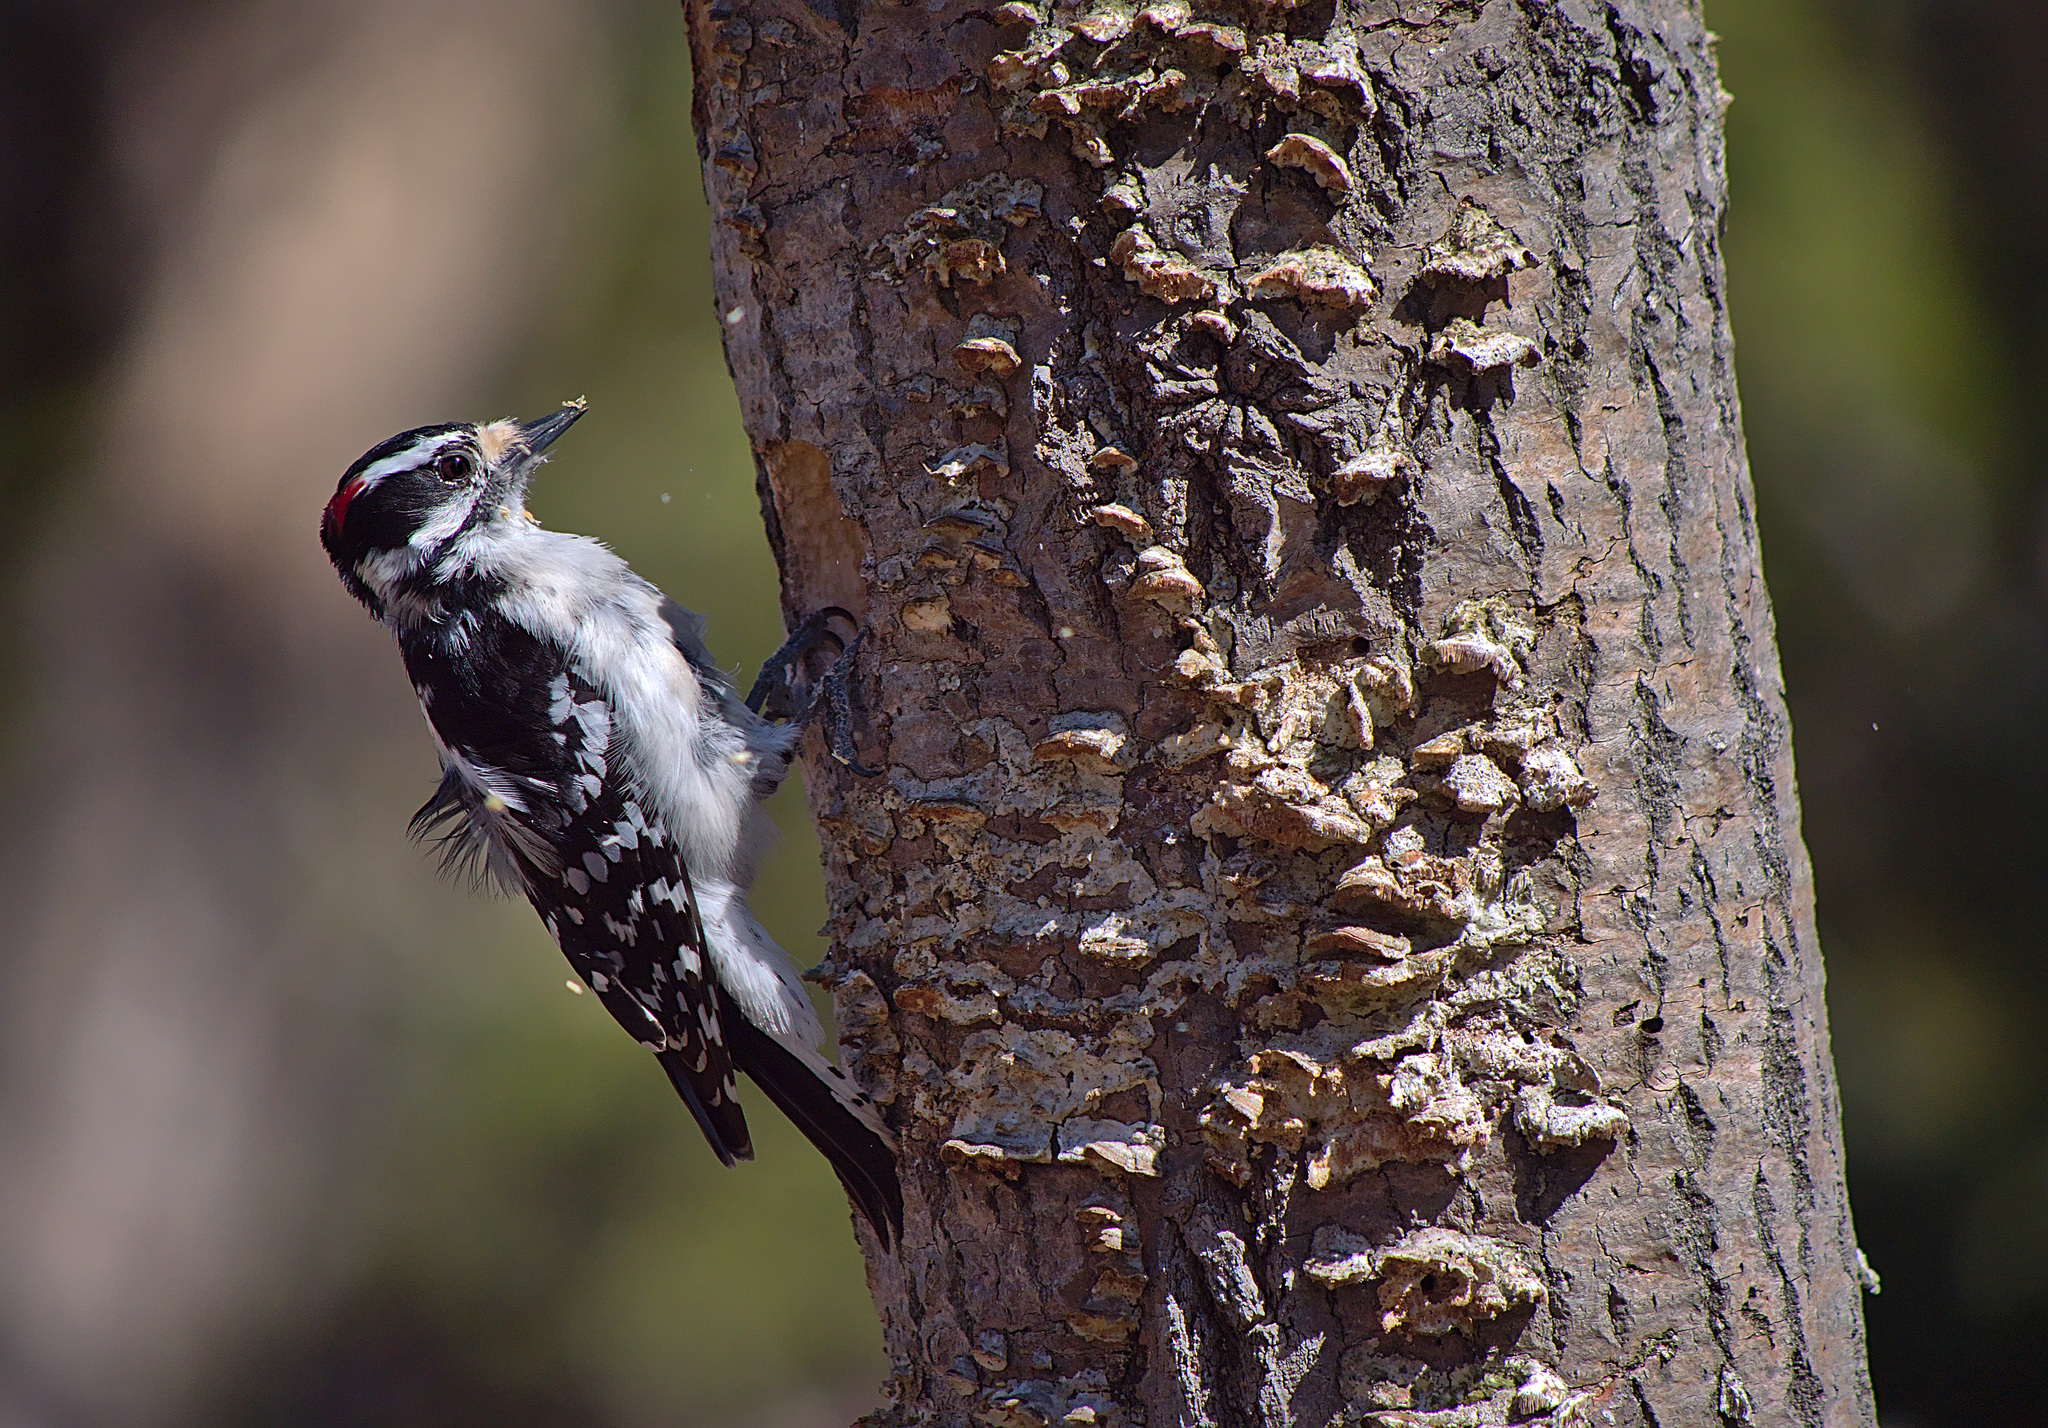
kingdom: Animalia
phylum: Chordata
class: Aves
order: Piciformes
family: Picidae
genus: Dryobates
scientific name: Dryobates pubescens
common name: Downy woodpecker
